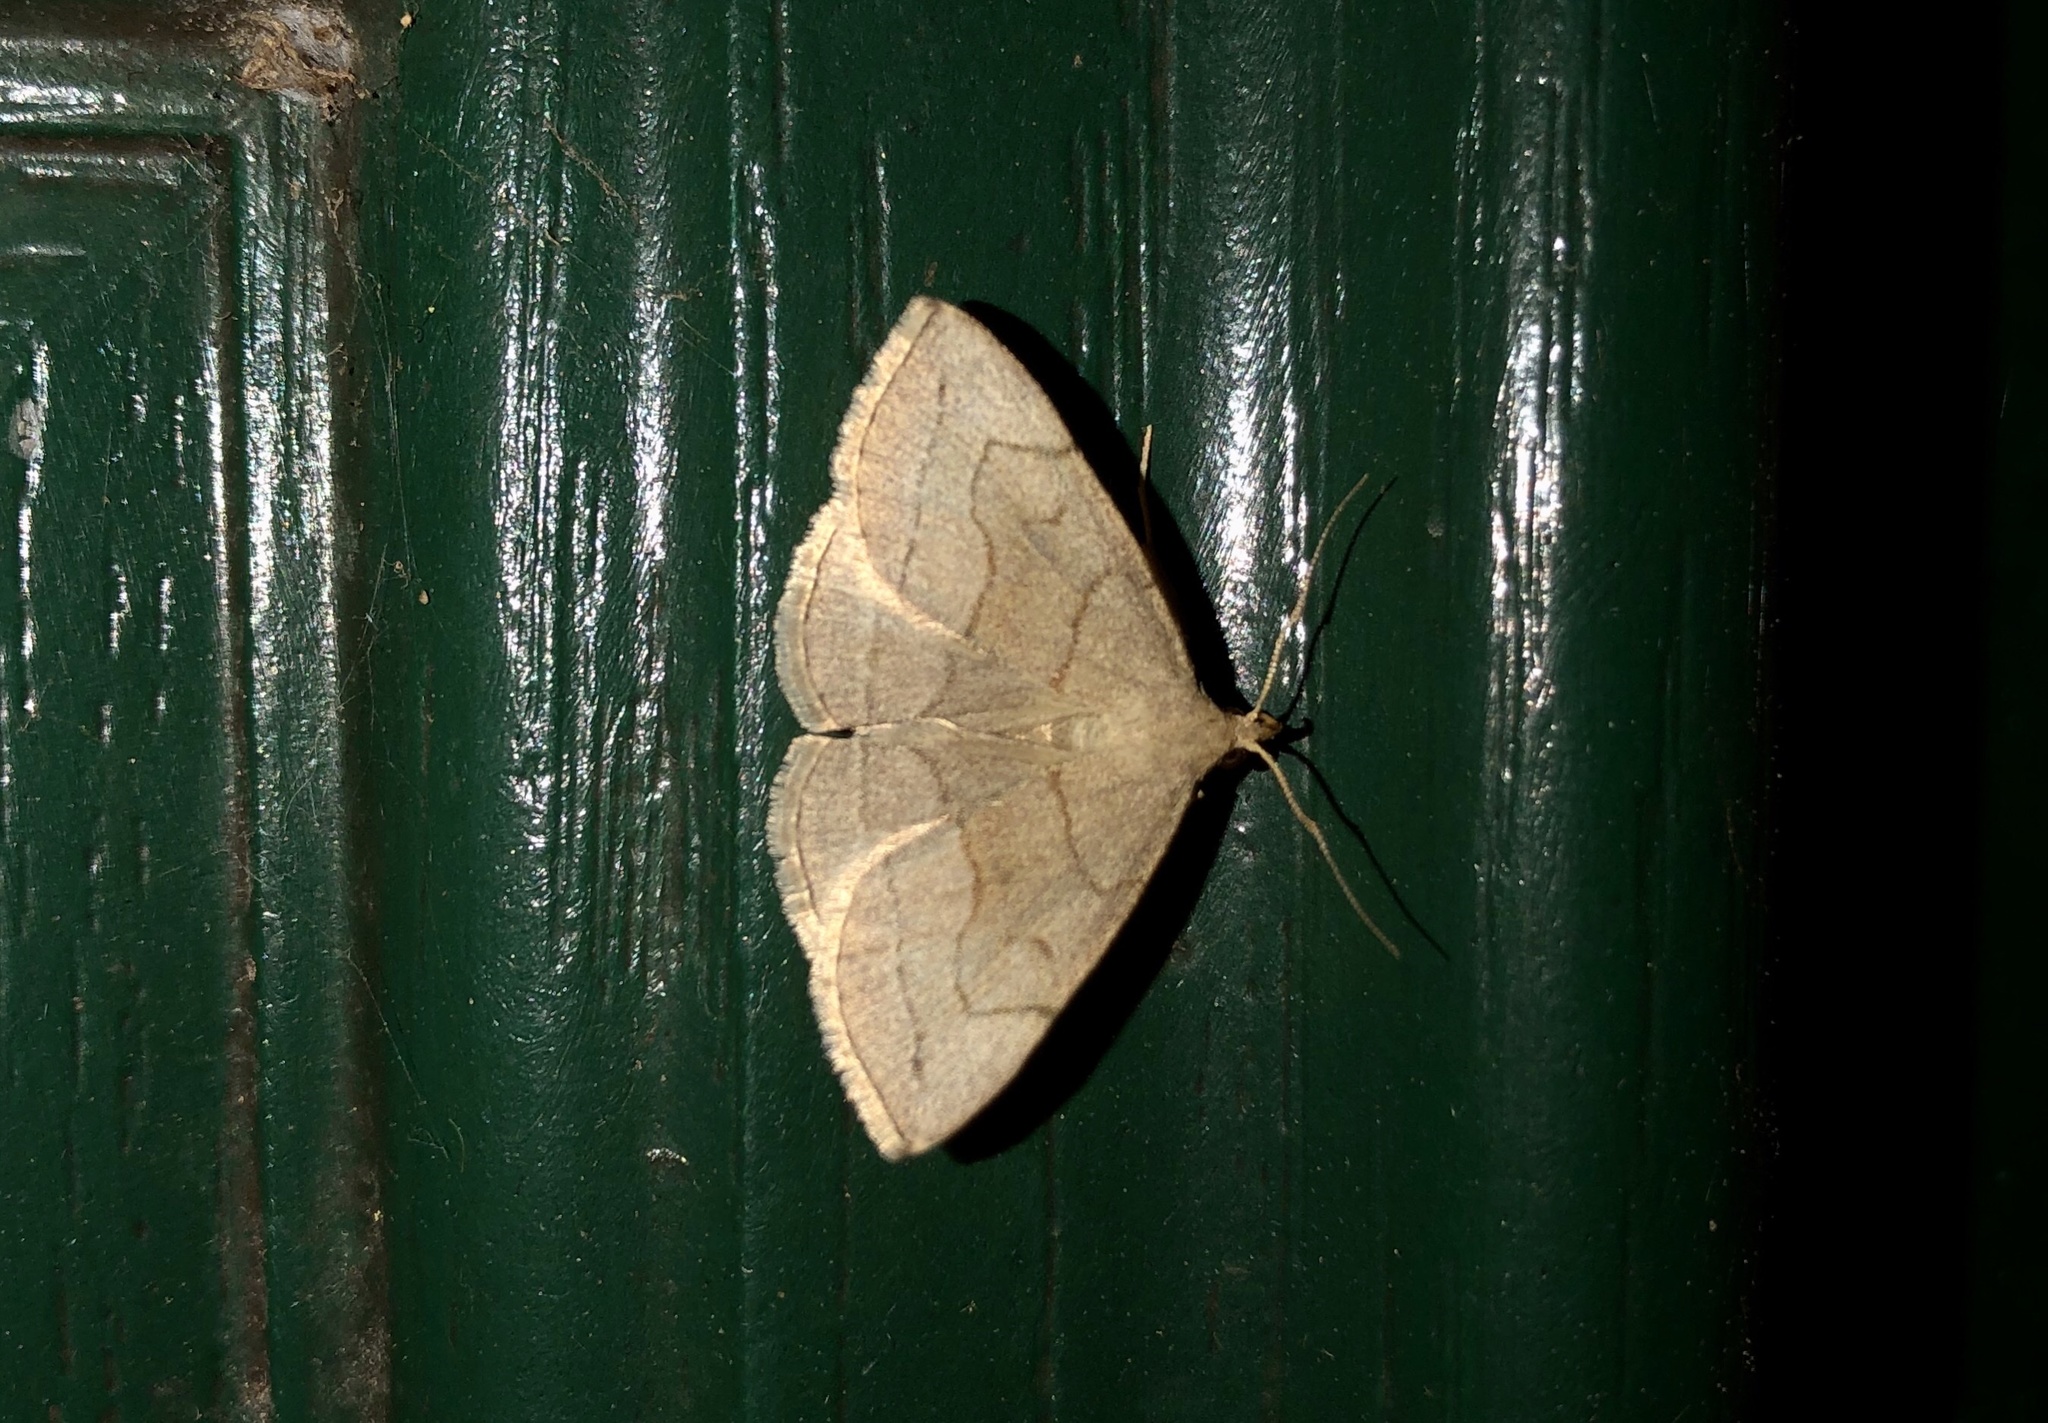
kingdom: Animalia
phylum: Arthropoda
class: Insecta
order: Lepidoptera
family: Erebidae
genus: Zanclognatha
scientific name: Zanclognatha pedipilalis
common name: Grayish fan-foot
